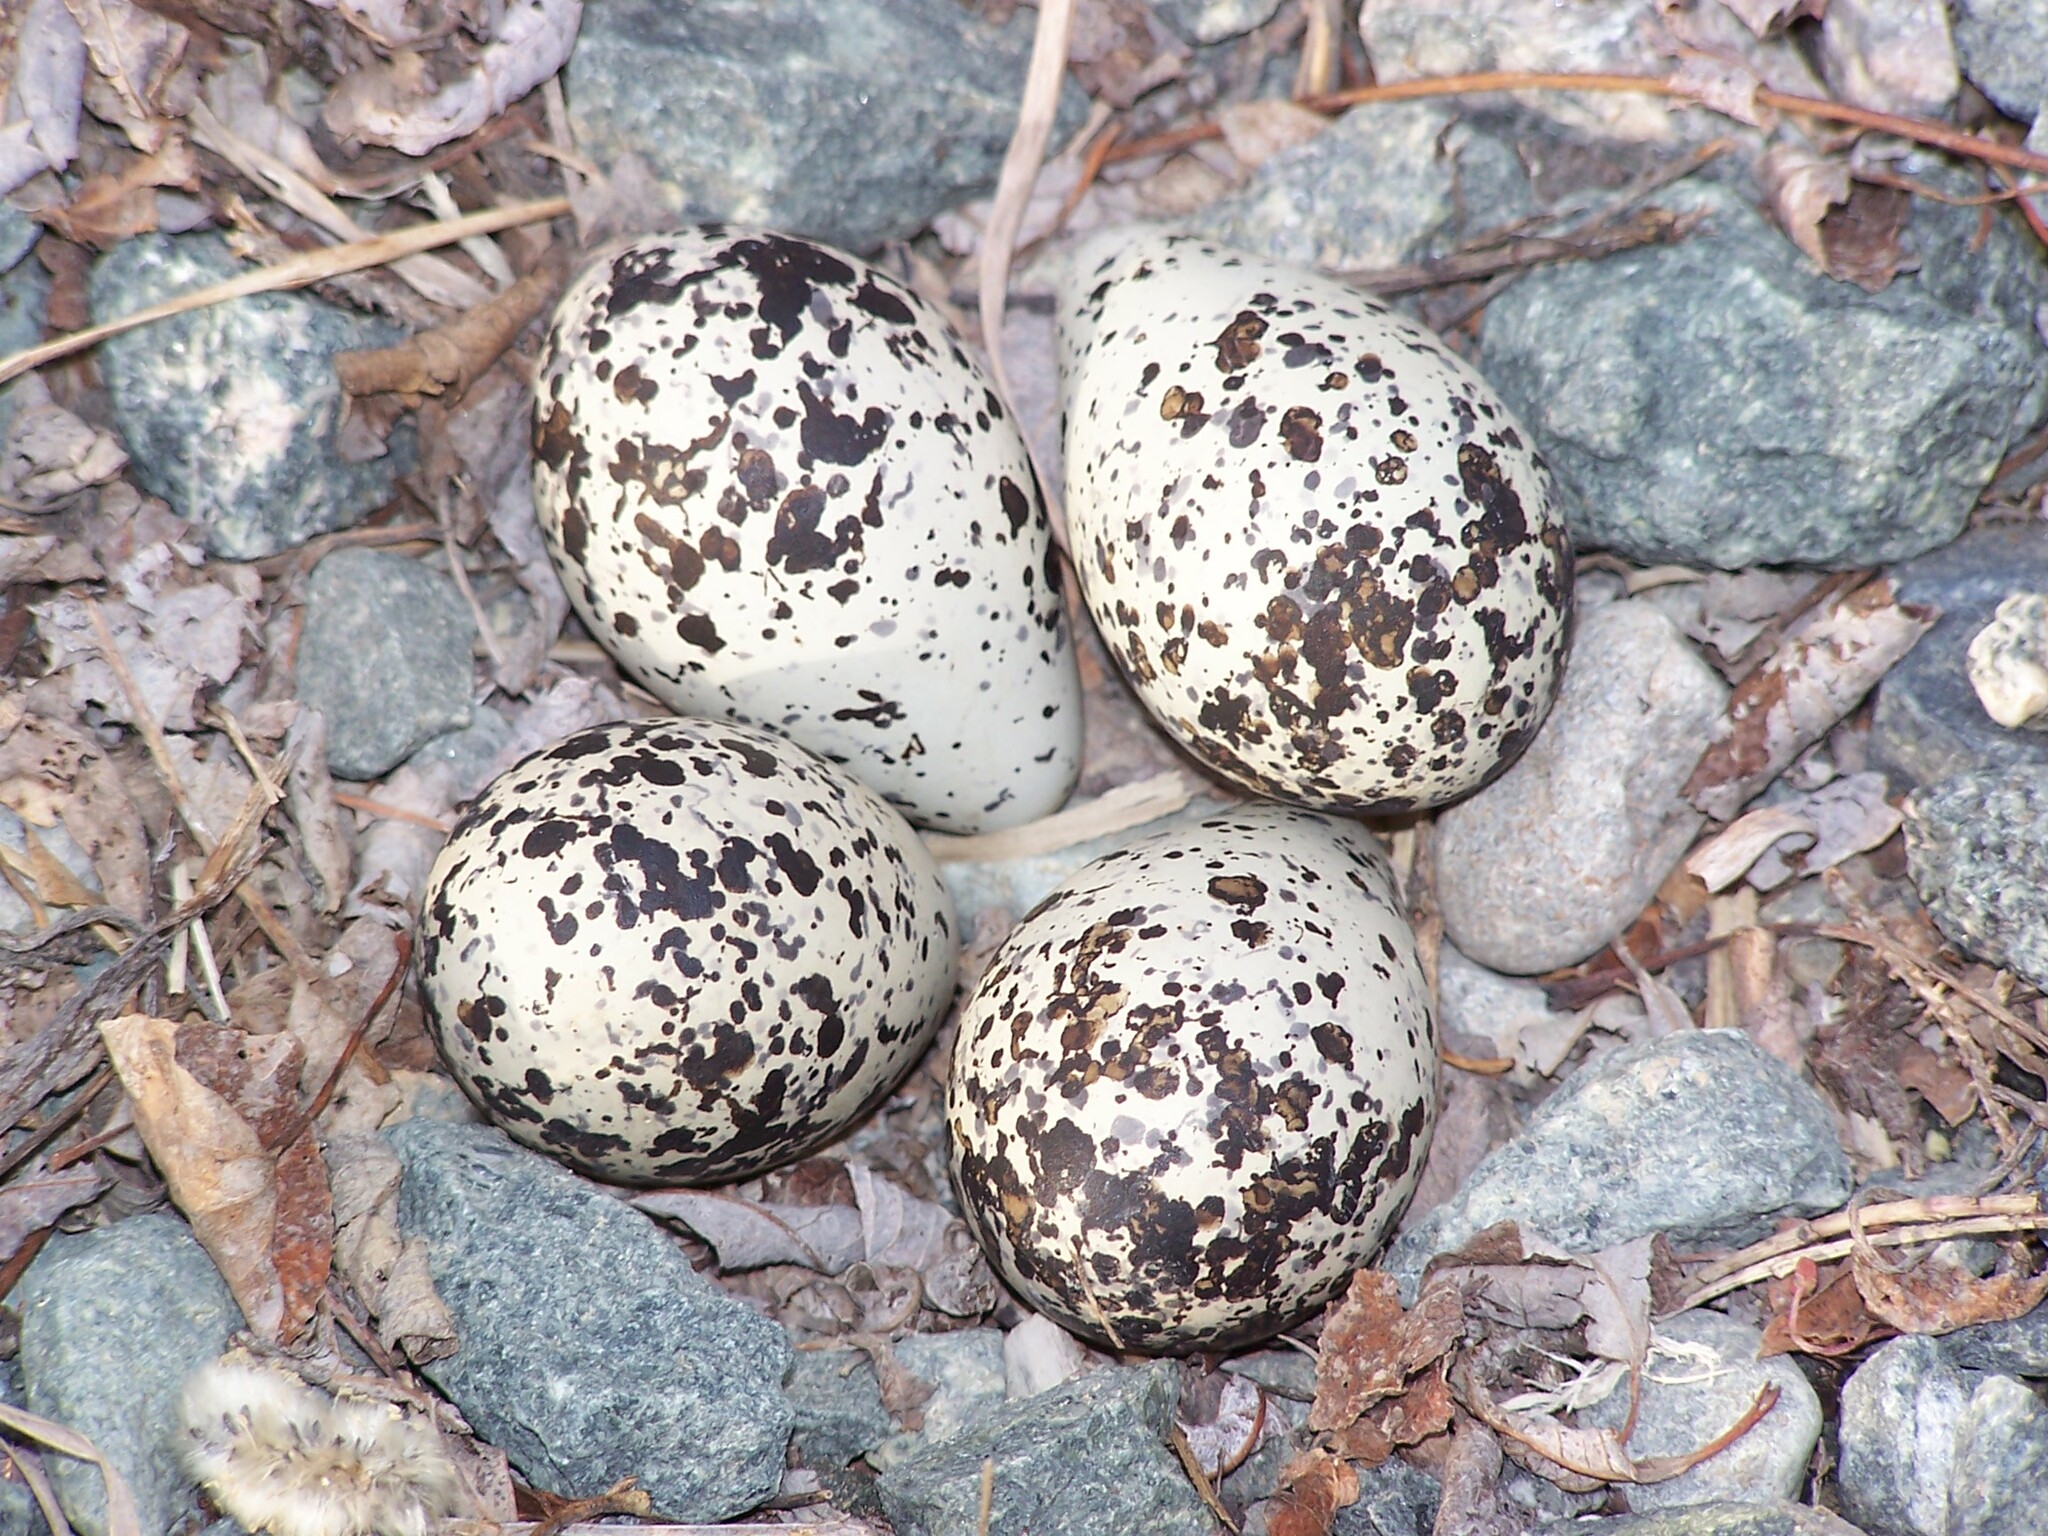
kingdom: Animalia
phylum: Chordata
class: Aves
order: Charadriiformes
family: Charadriidae
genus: Charadrius
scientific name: Charadrius vociferus
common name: Killdeer
